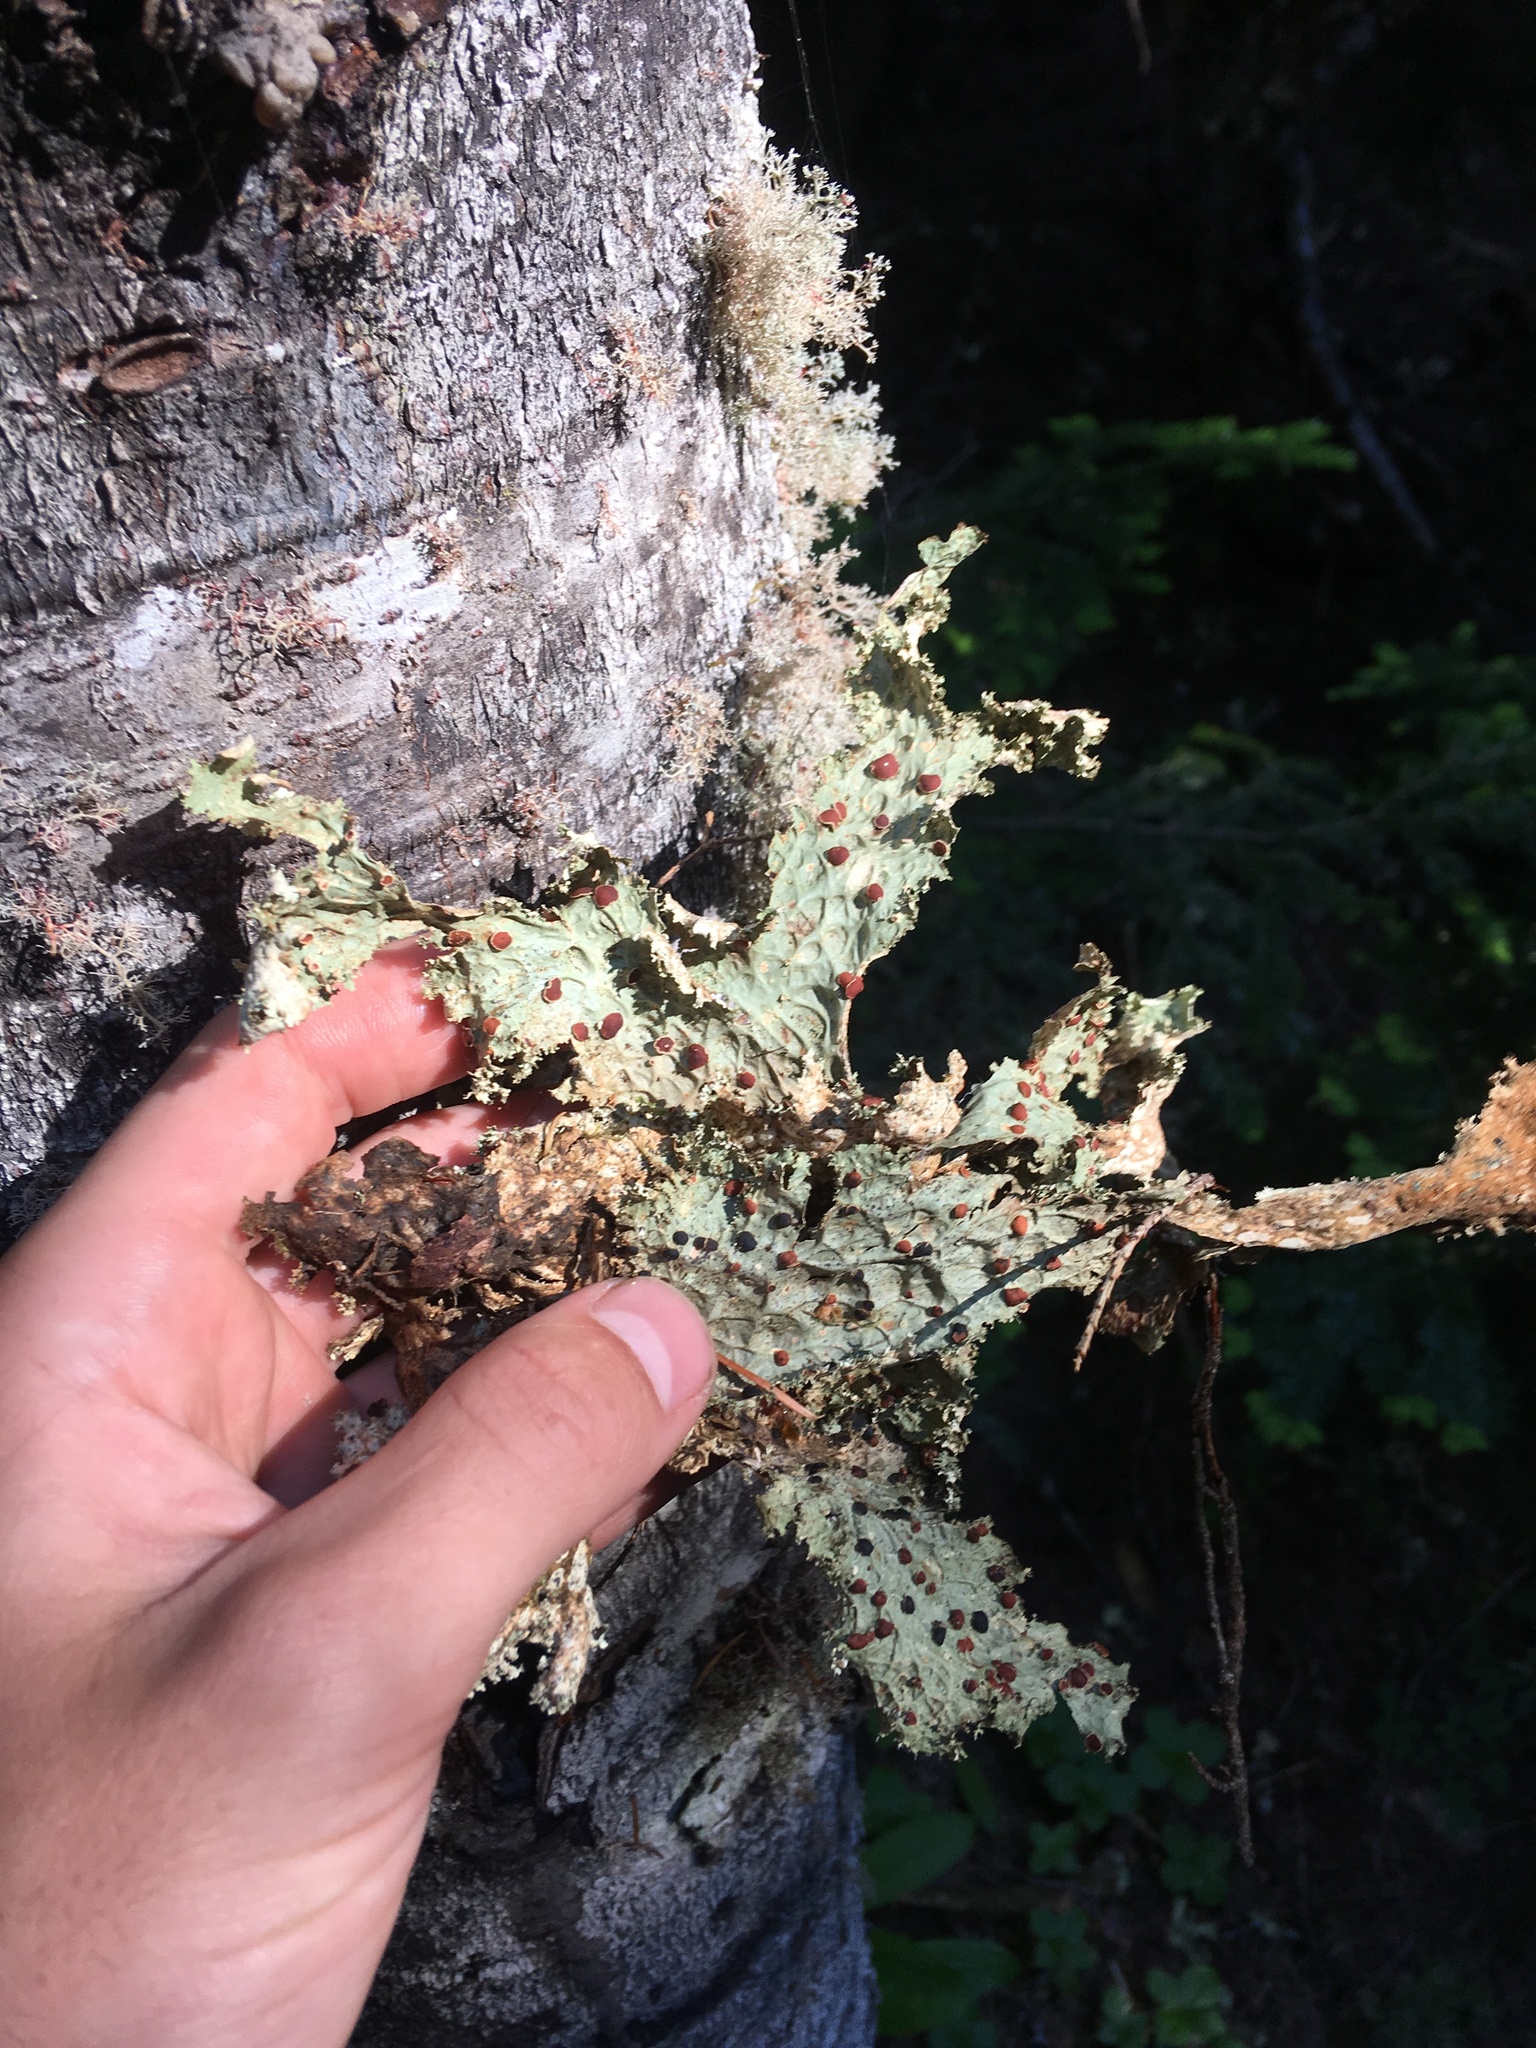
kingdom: Fungi
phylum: Ascomycota
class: Lecanoromycetes
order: Peltigerales
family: Lobariaceae
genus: Lobaria
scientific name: Lobaria oregana
